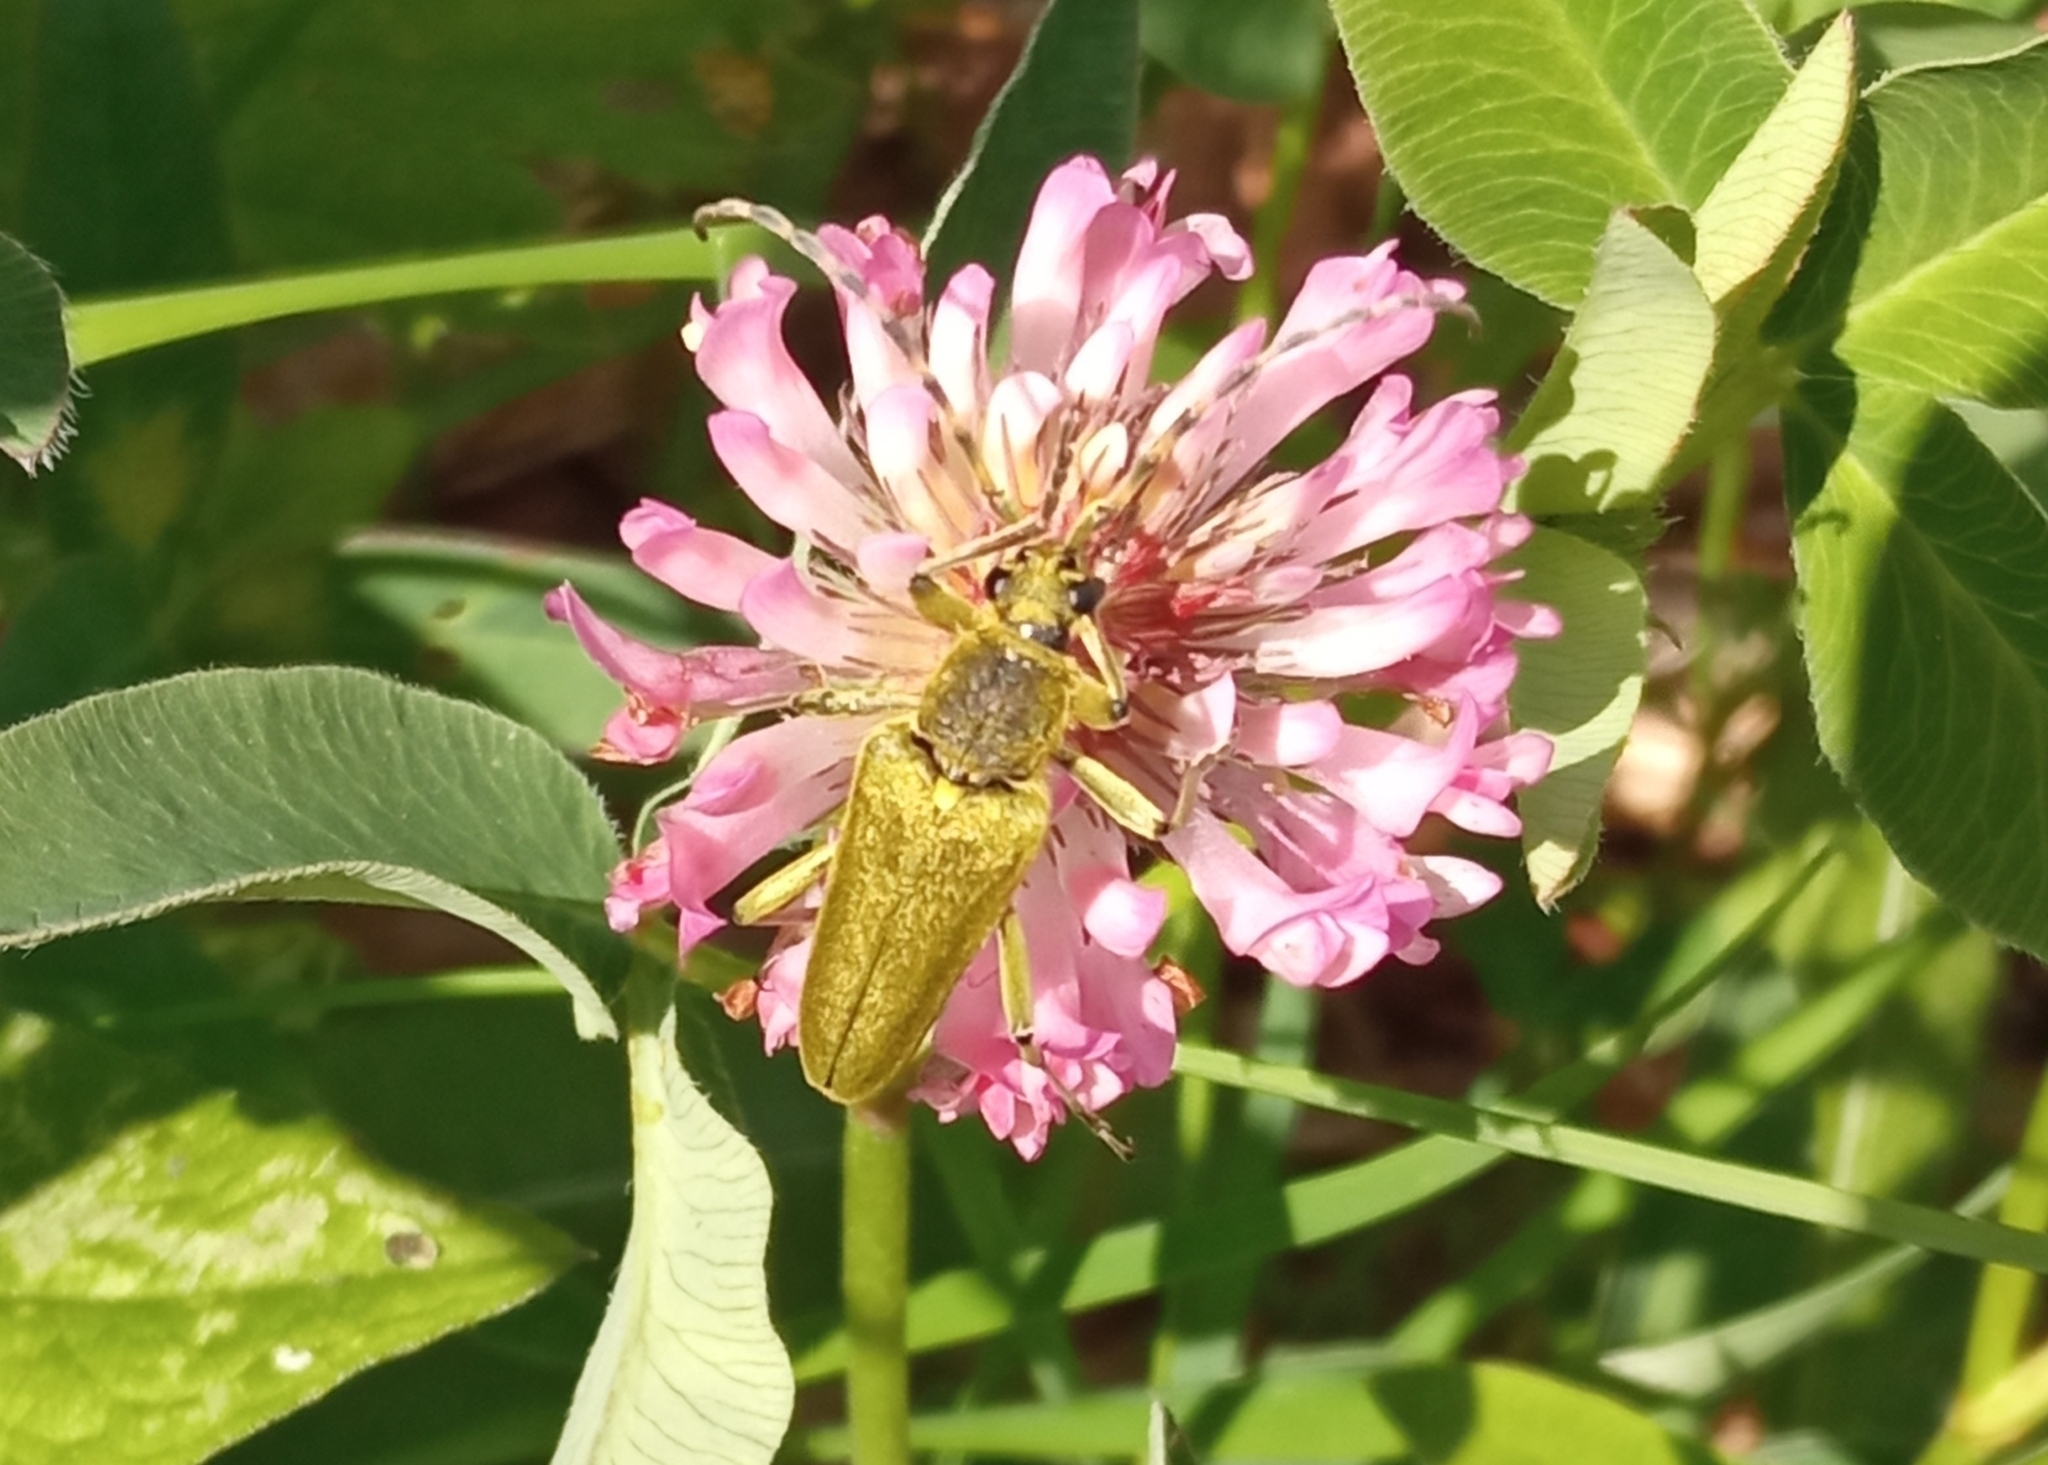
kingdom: Animalia
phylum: Arthropoda
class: Insecta
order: Coleoptera
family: Cerambycidae
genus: Lepturobosca
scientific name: Lepturobosca virens
